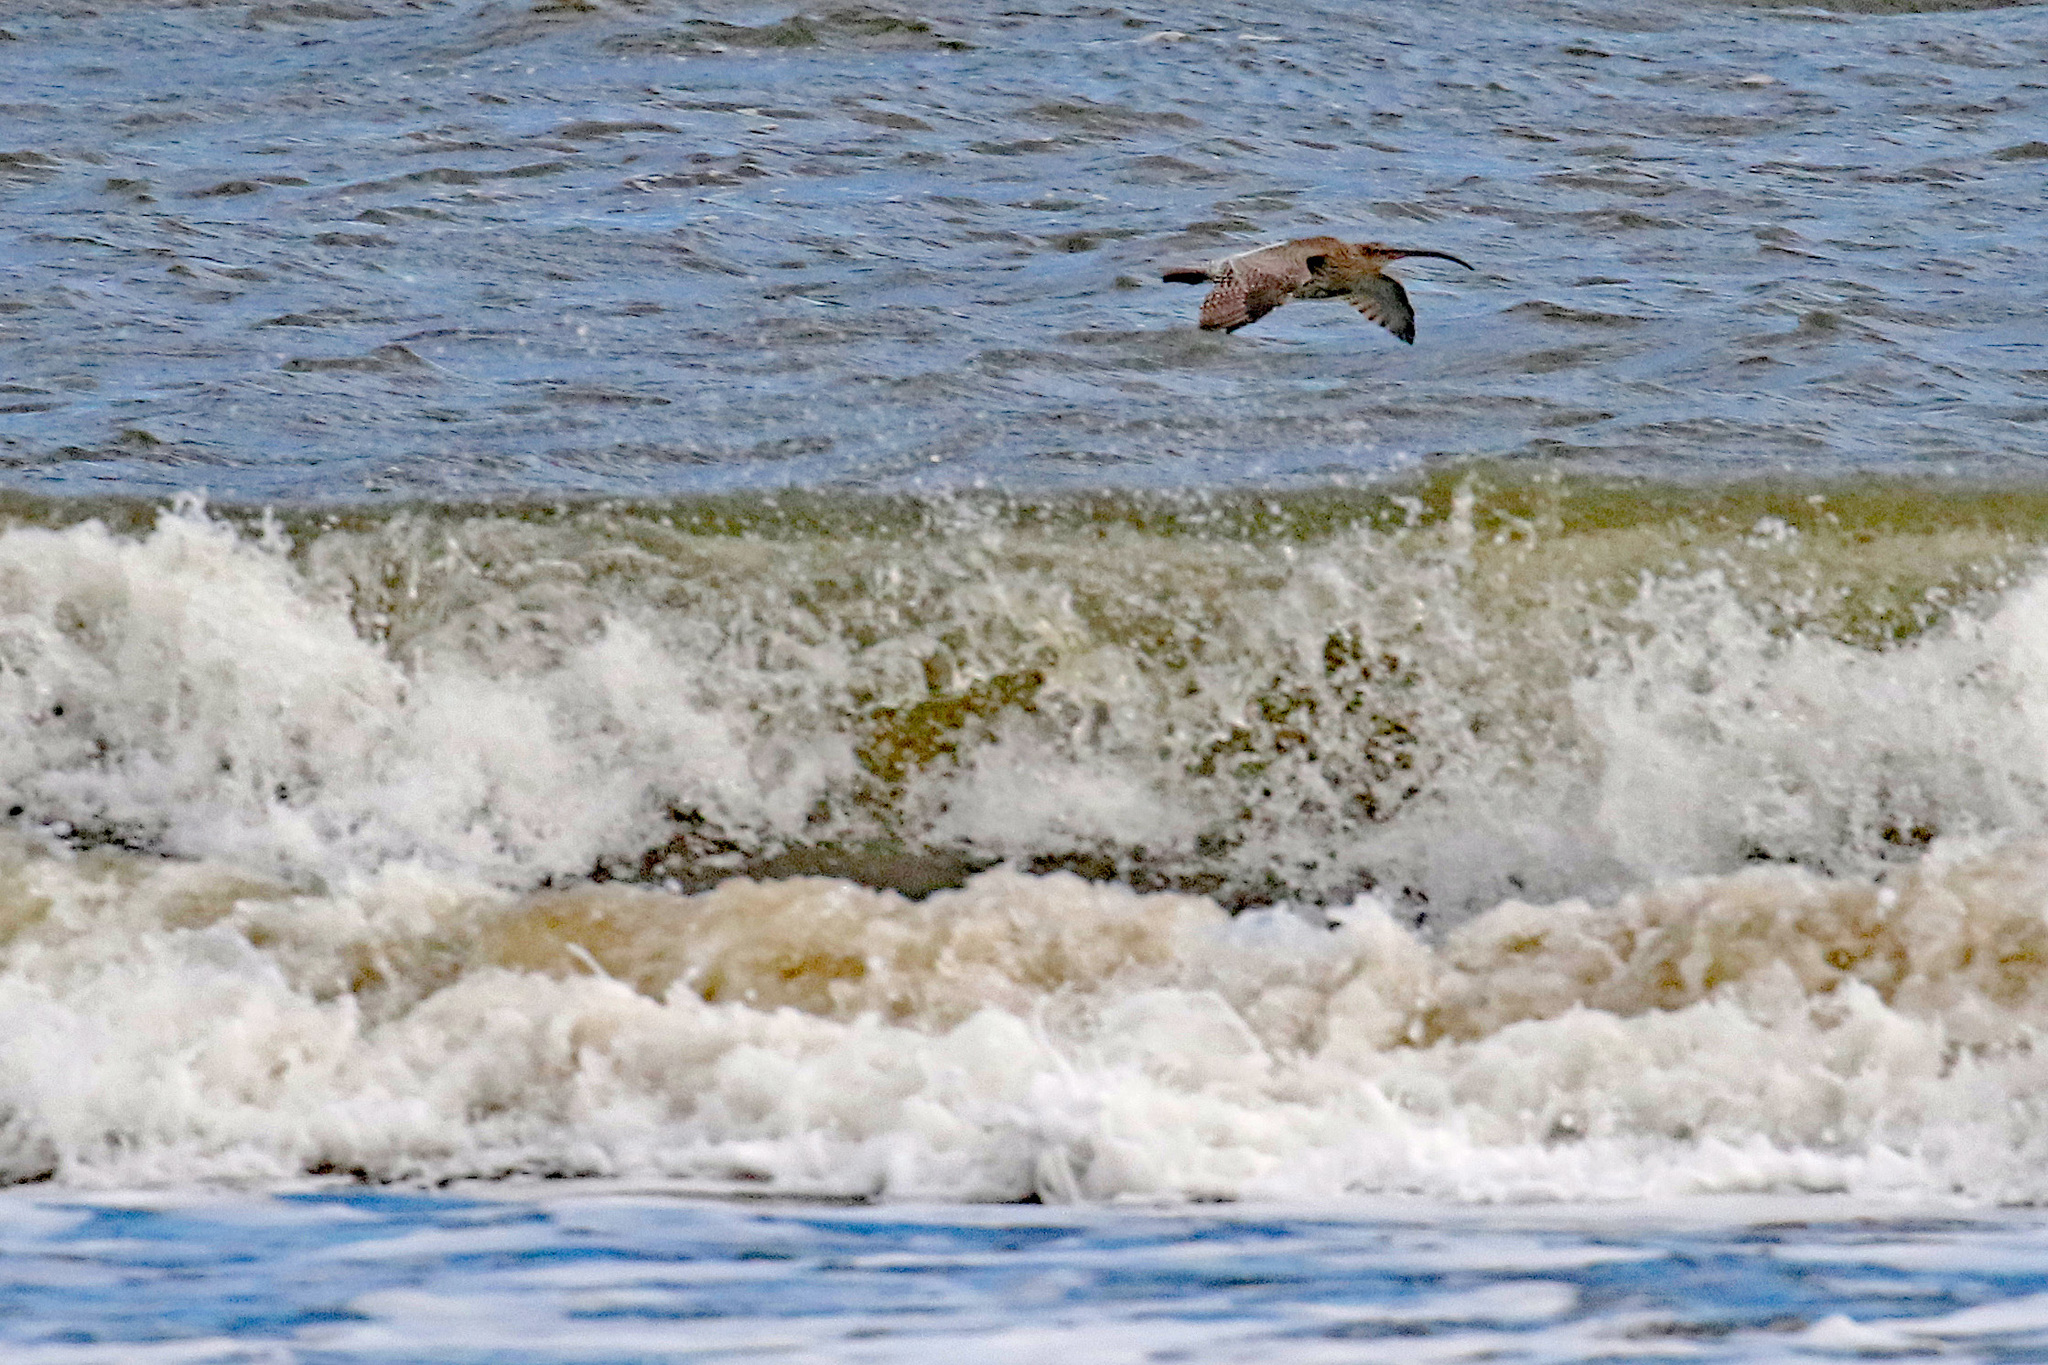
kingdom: Animalia
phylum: Chordata
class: Aves
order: Charadriiformes
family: Scolopacidae
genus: Numenius
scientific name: Numenius arquata
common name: Eurasian curlew
